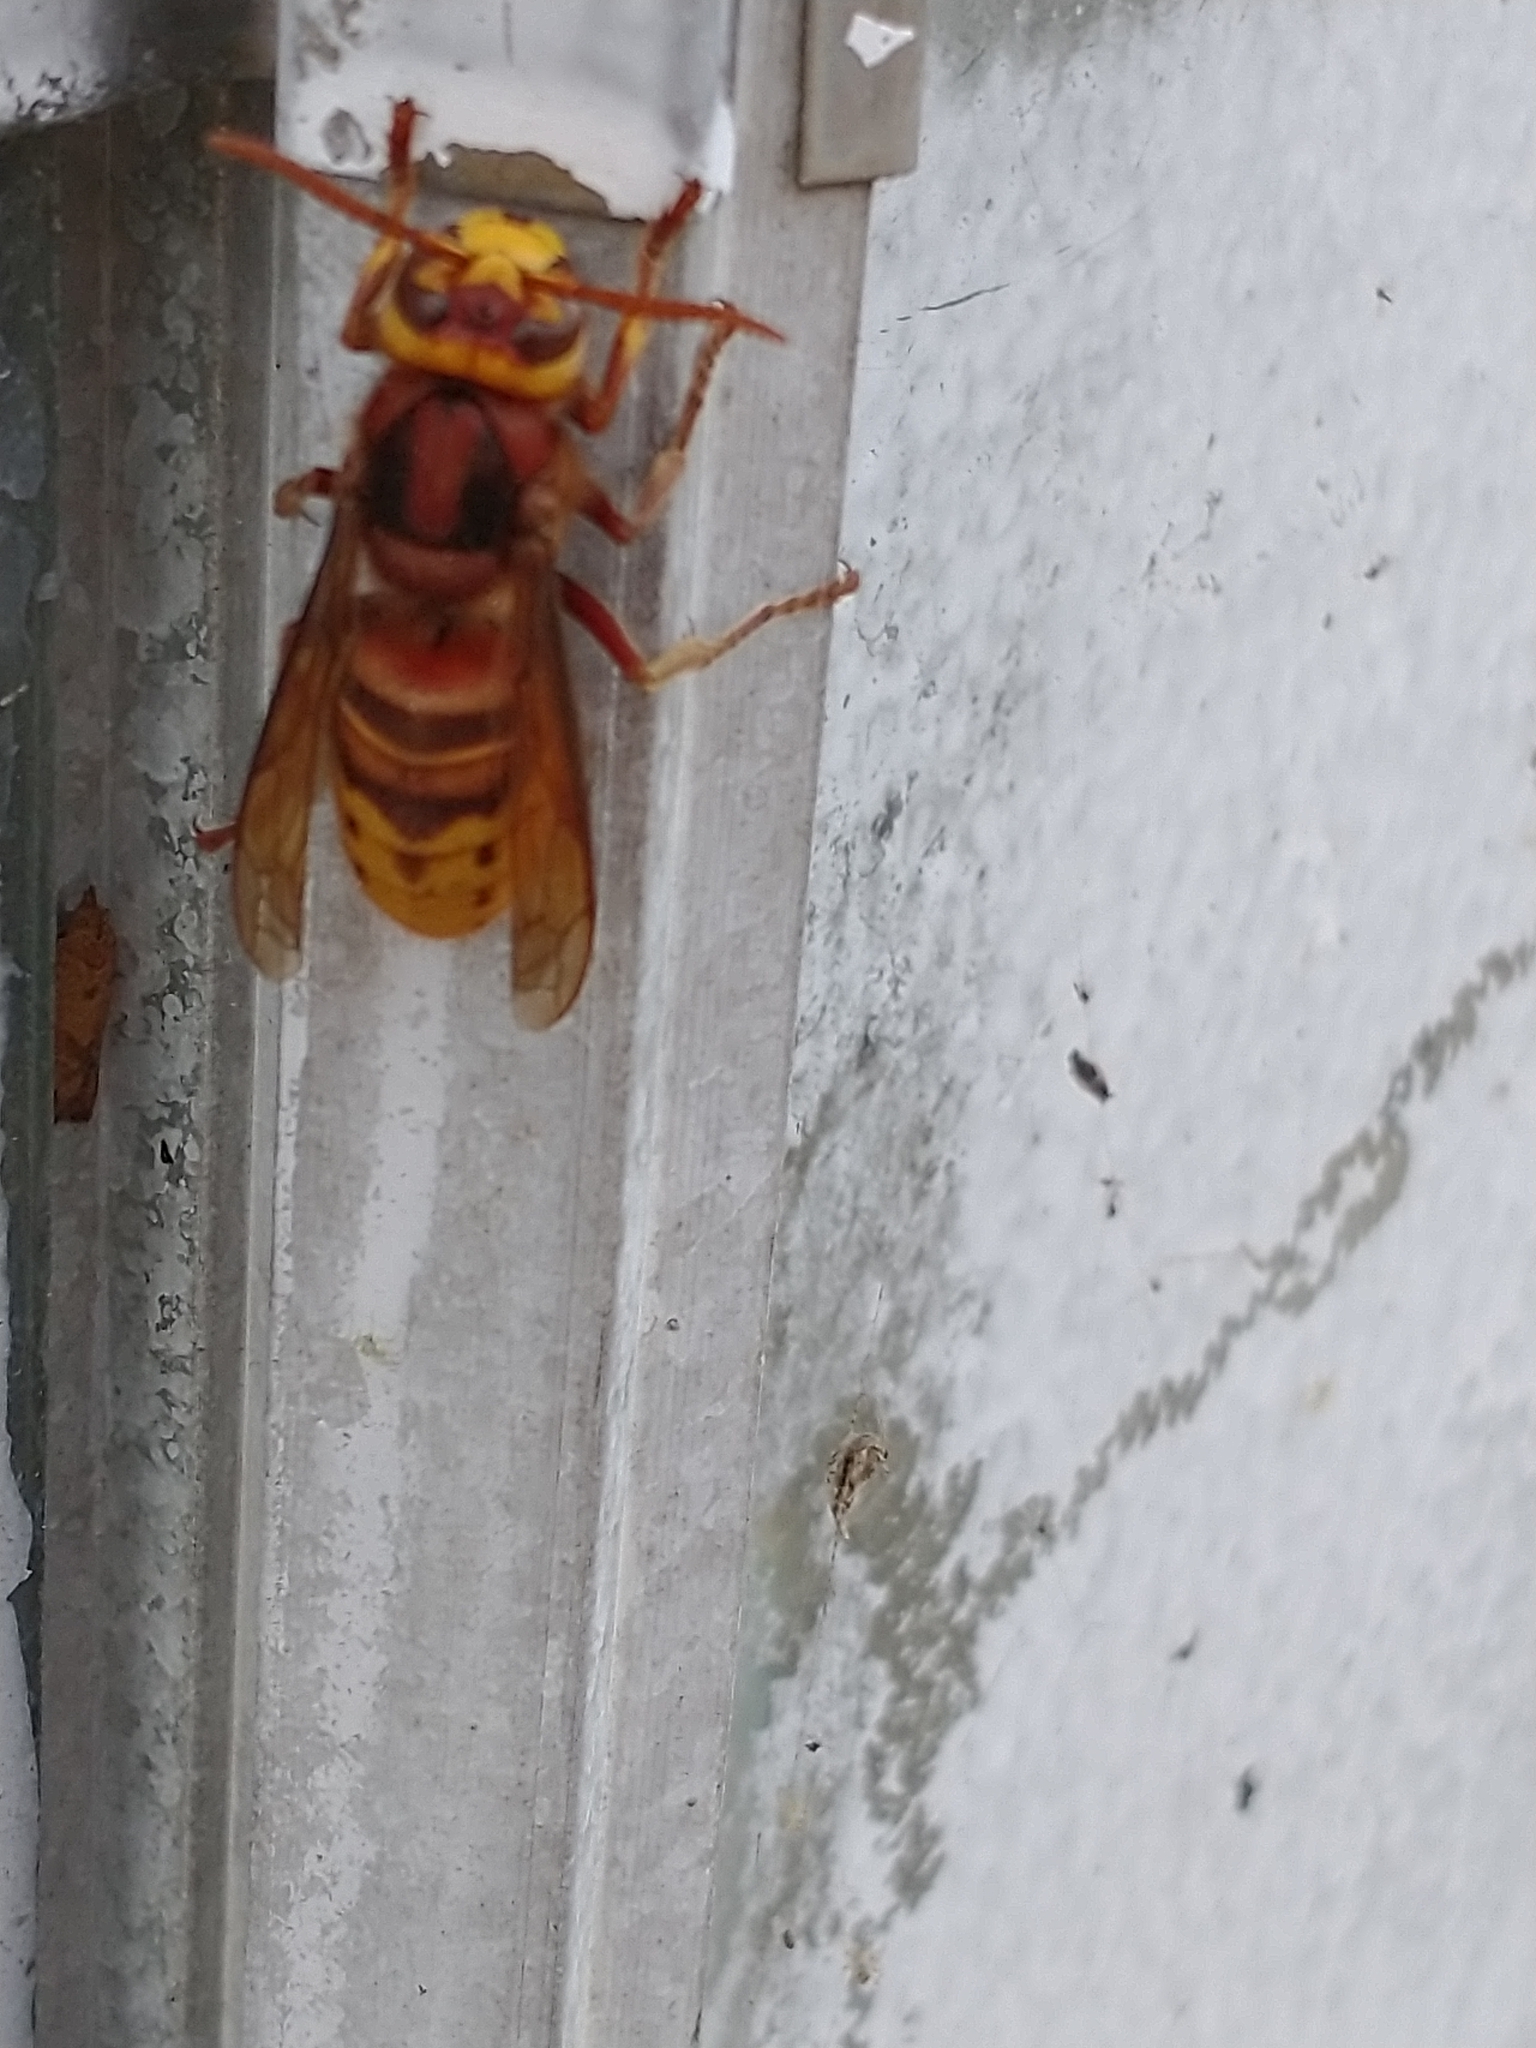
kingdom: Animalia
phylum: Arthropoda
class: Insecta
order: Hymenoptera
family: Vespidae
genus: Vespa
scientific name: Vespa crabro
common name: Hornet
